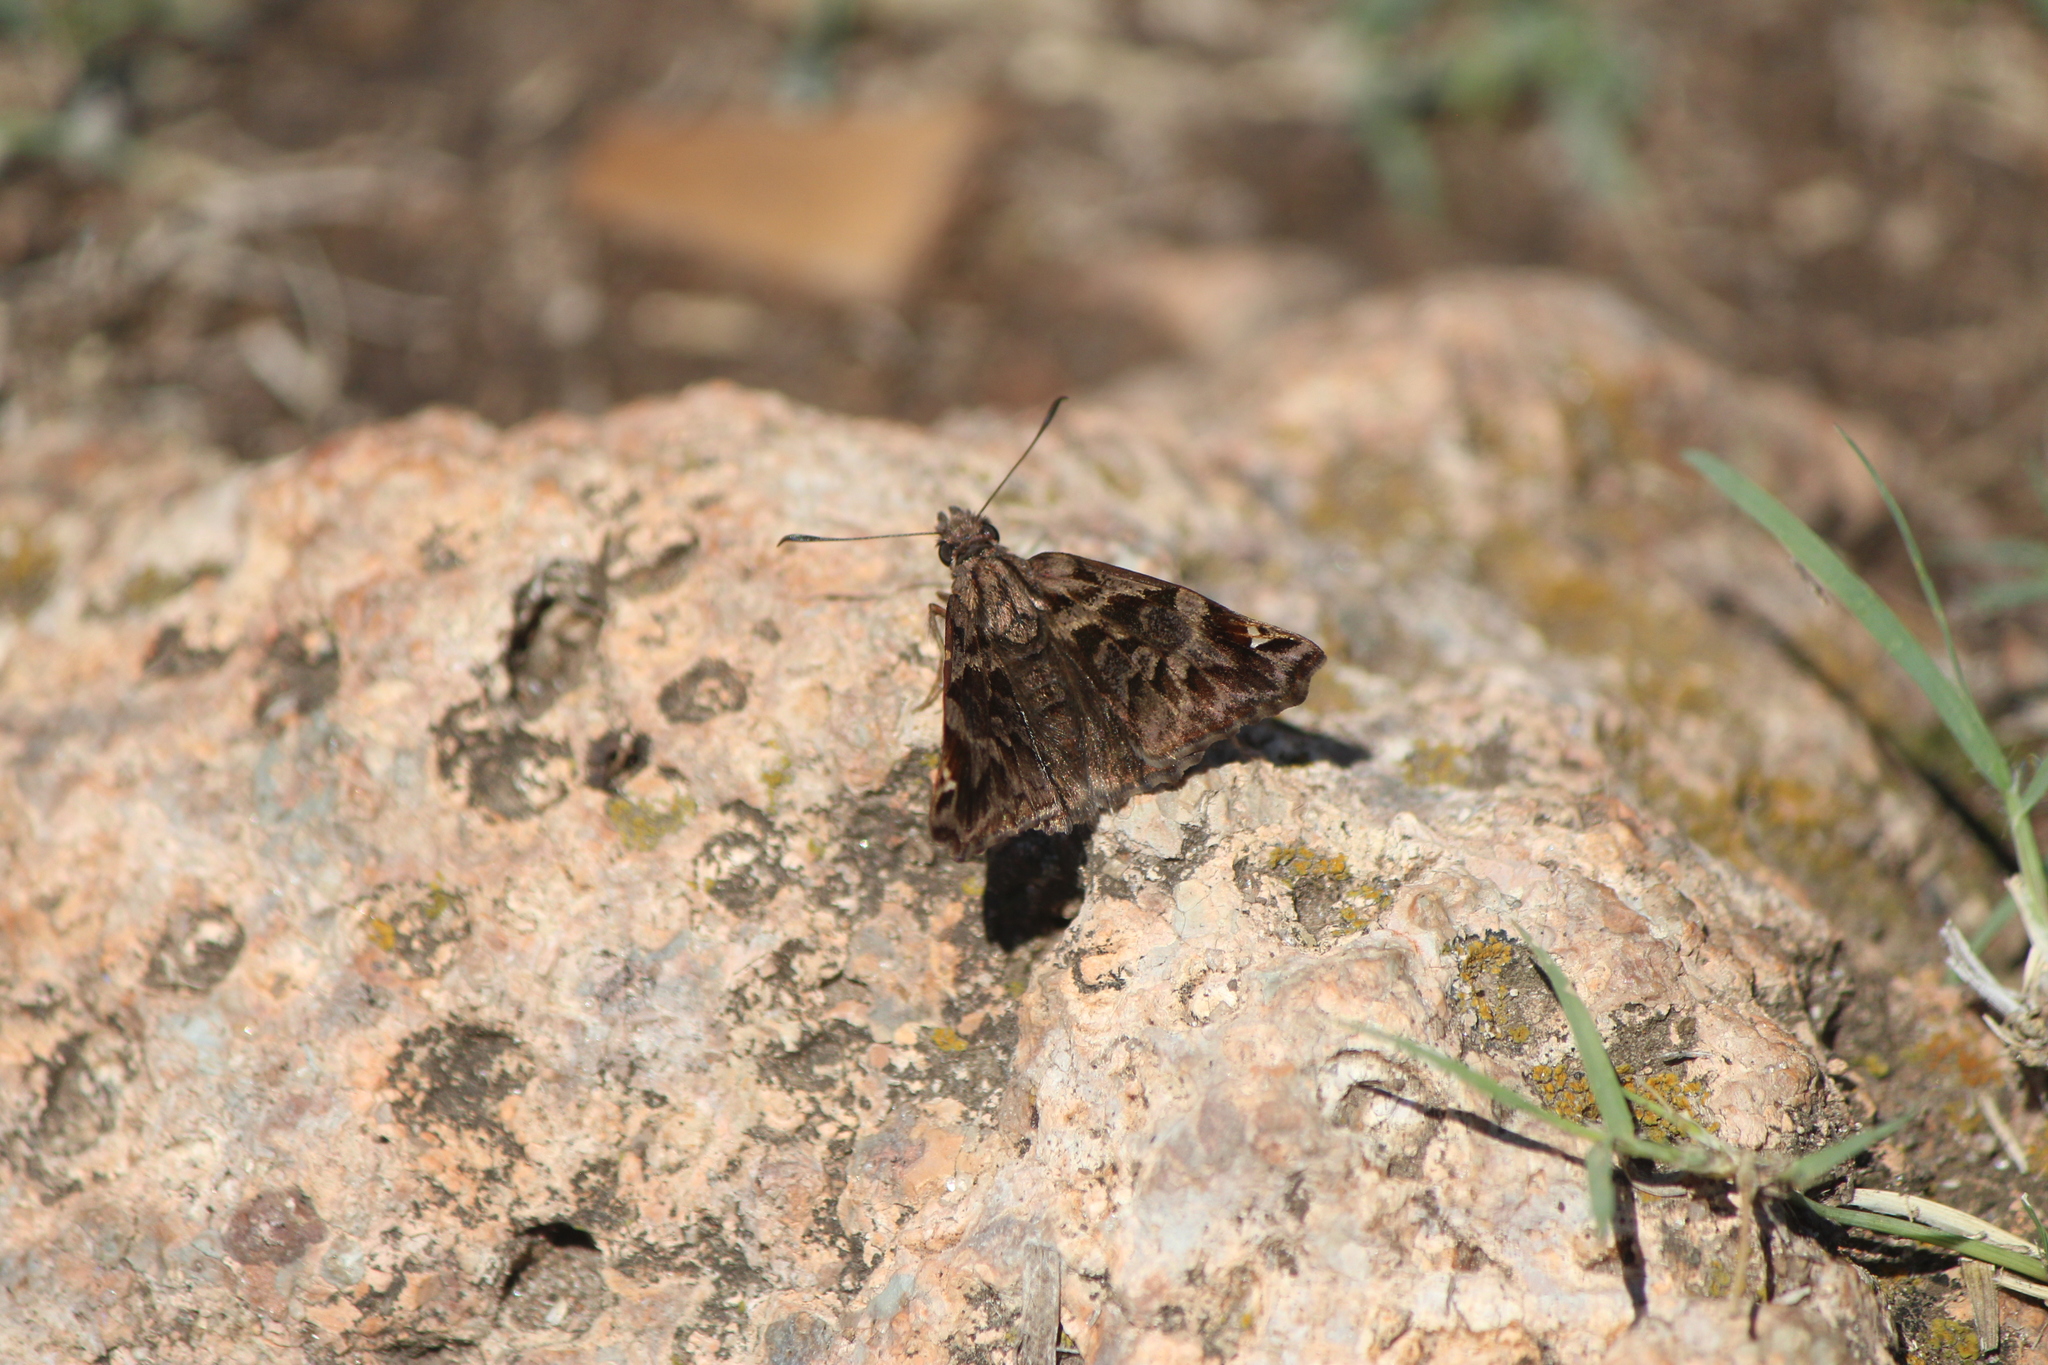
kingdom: Animalia
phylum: Arthropoda
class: Insecta
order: Lepidoptera
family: Hesperiidae
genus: Noctuana
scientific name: Noctuana stator
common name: Red-studded skipper
